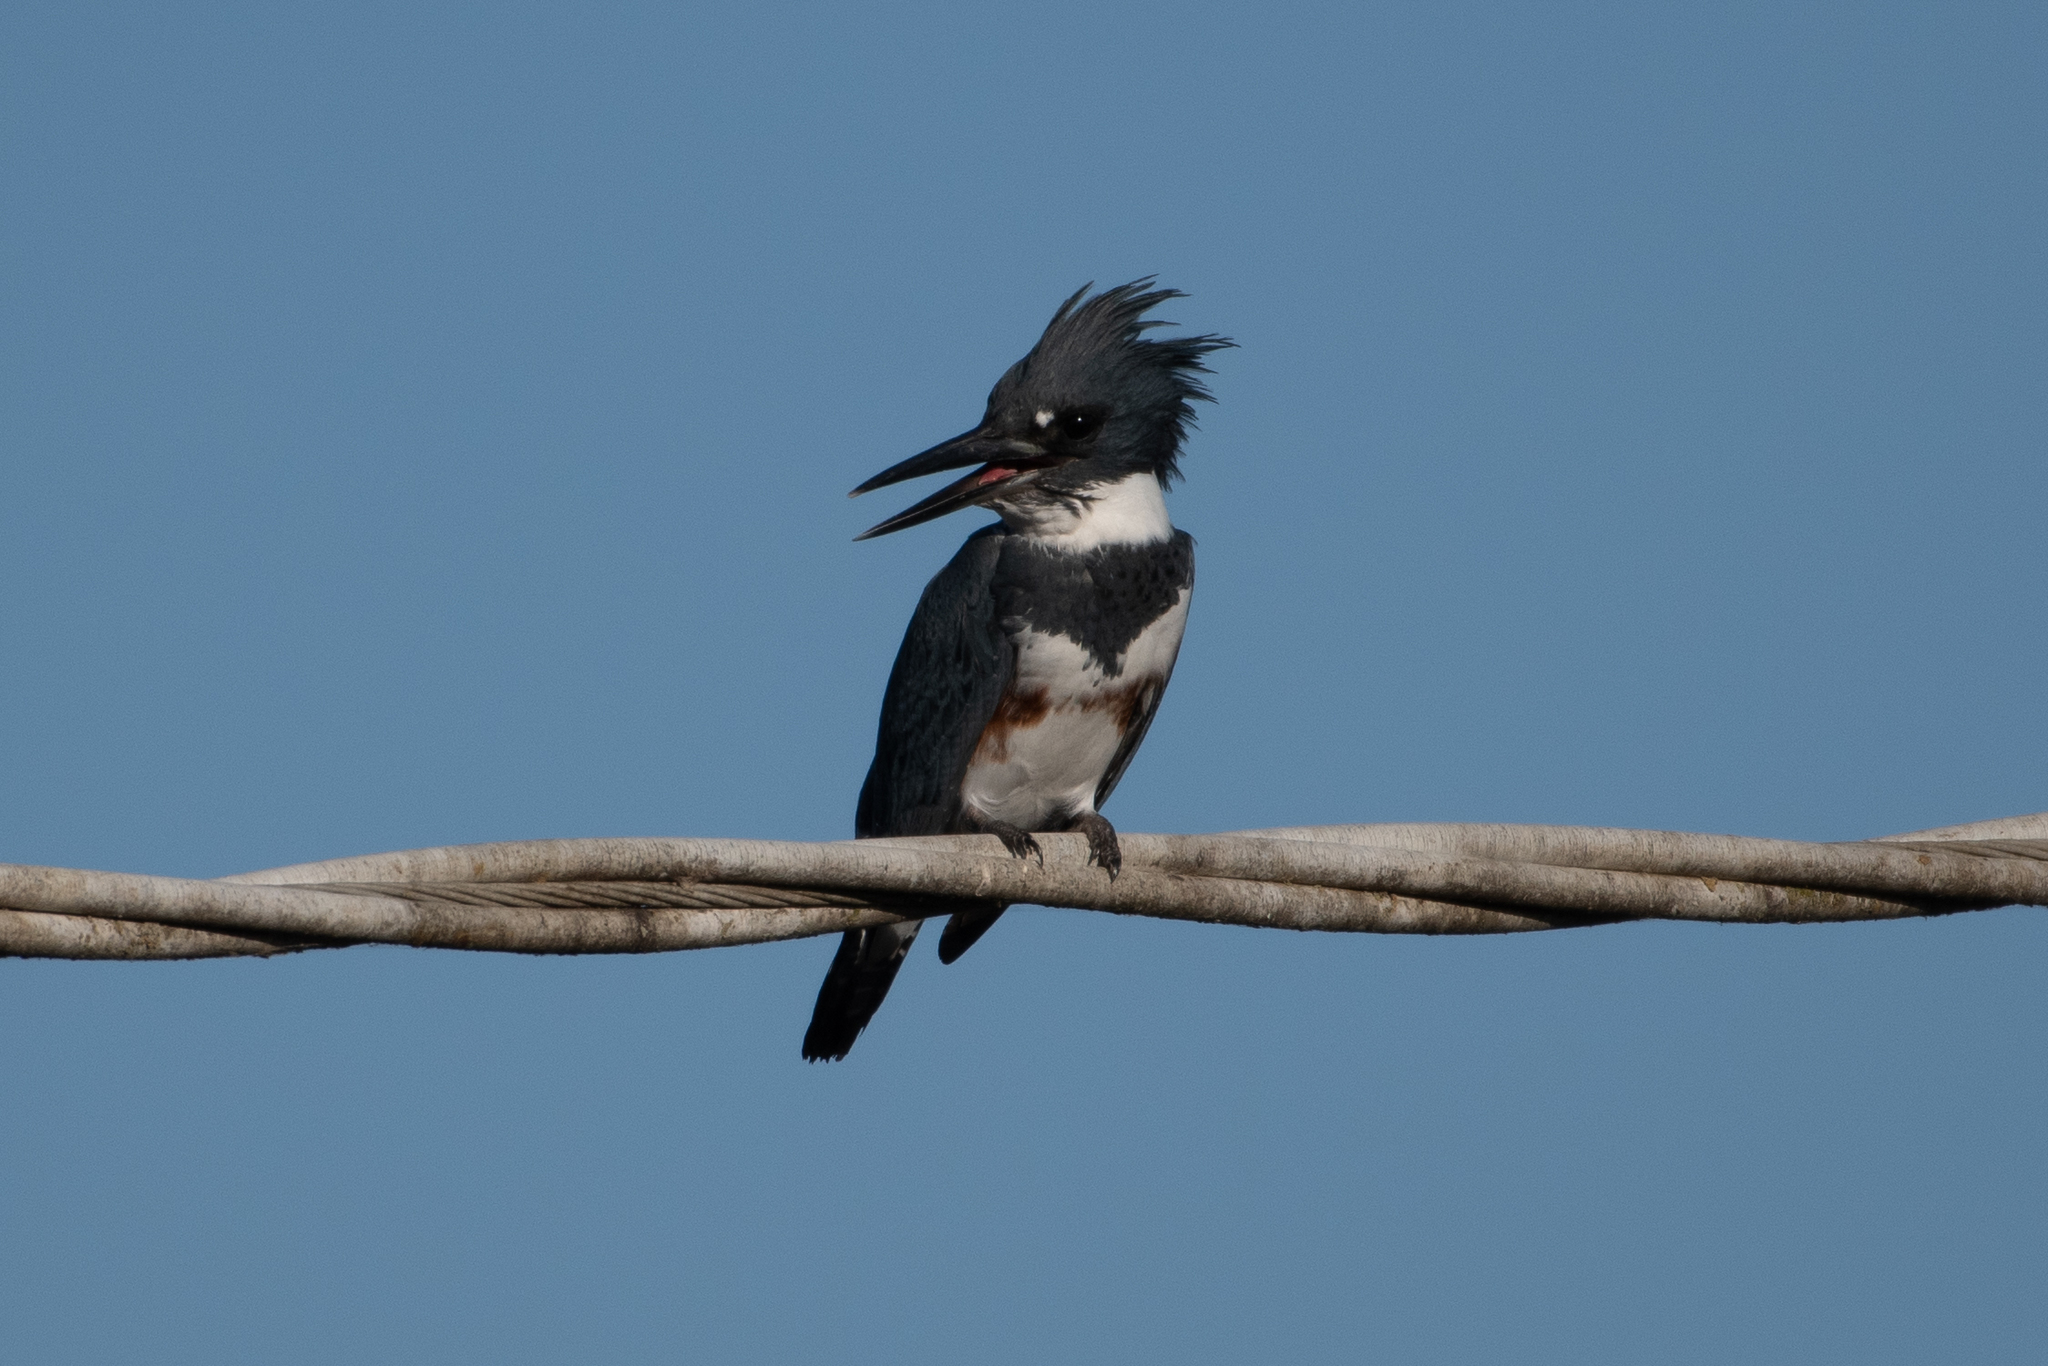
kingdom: Animalia
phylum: Chordata
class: Aves
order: Coraciiformes
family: Alcedinidae
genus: Megaceryle
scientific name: Megaceryle alcyon
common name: Belted kingfisher
